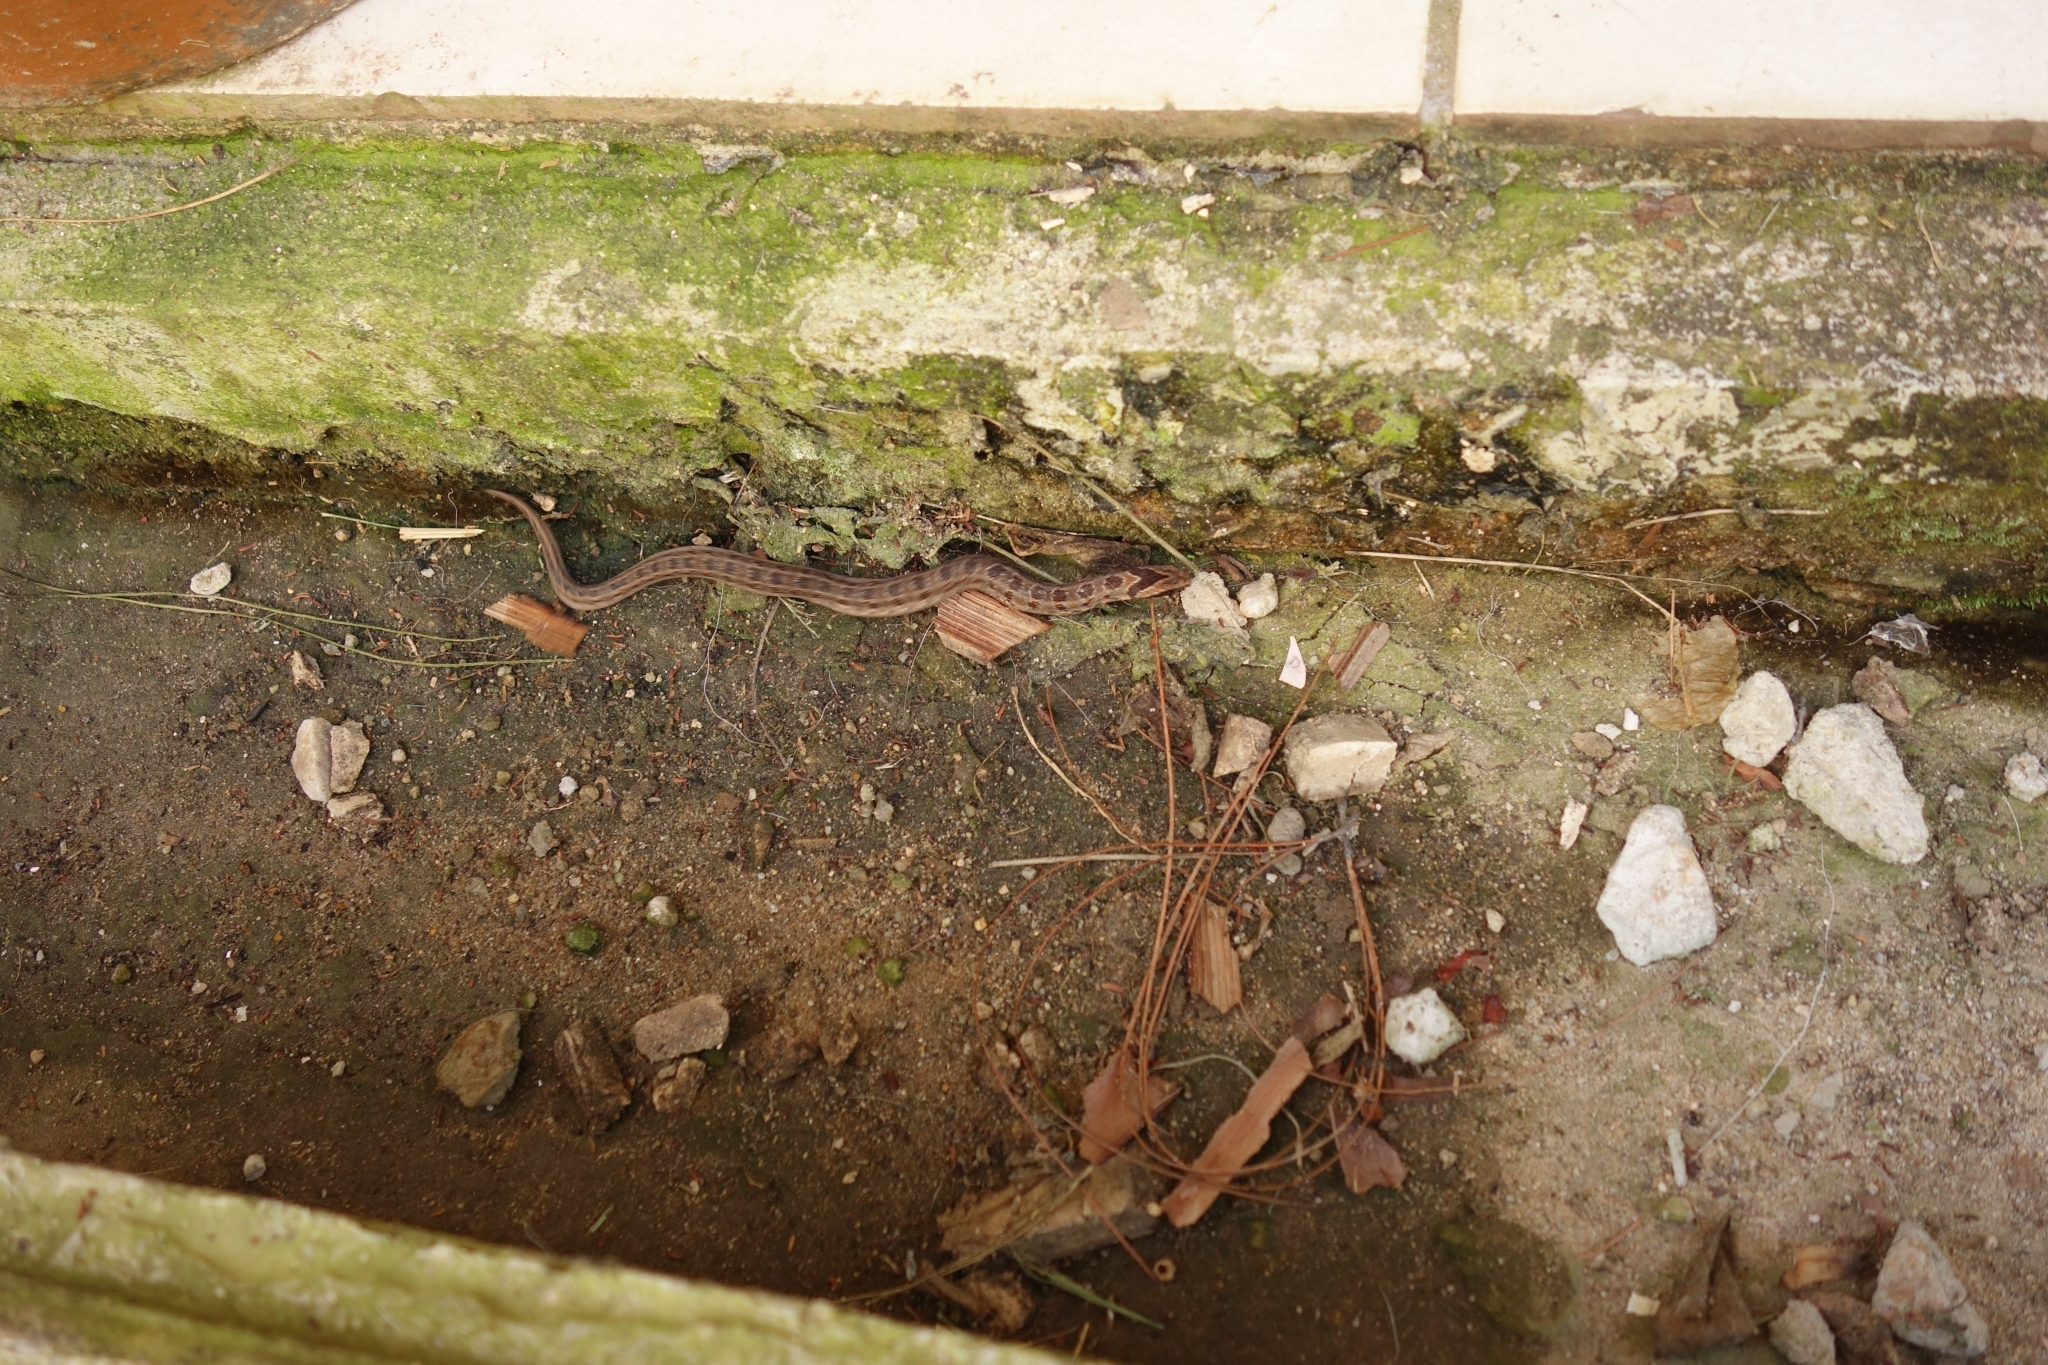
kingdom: Animalia
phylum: Chordata
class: Squamata
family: Viperidae
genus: Causus
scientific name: Causus rhombeatus
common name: Common night adder
